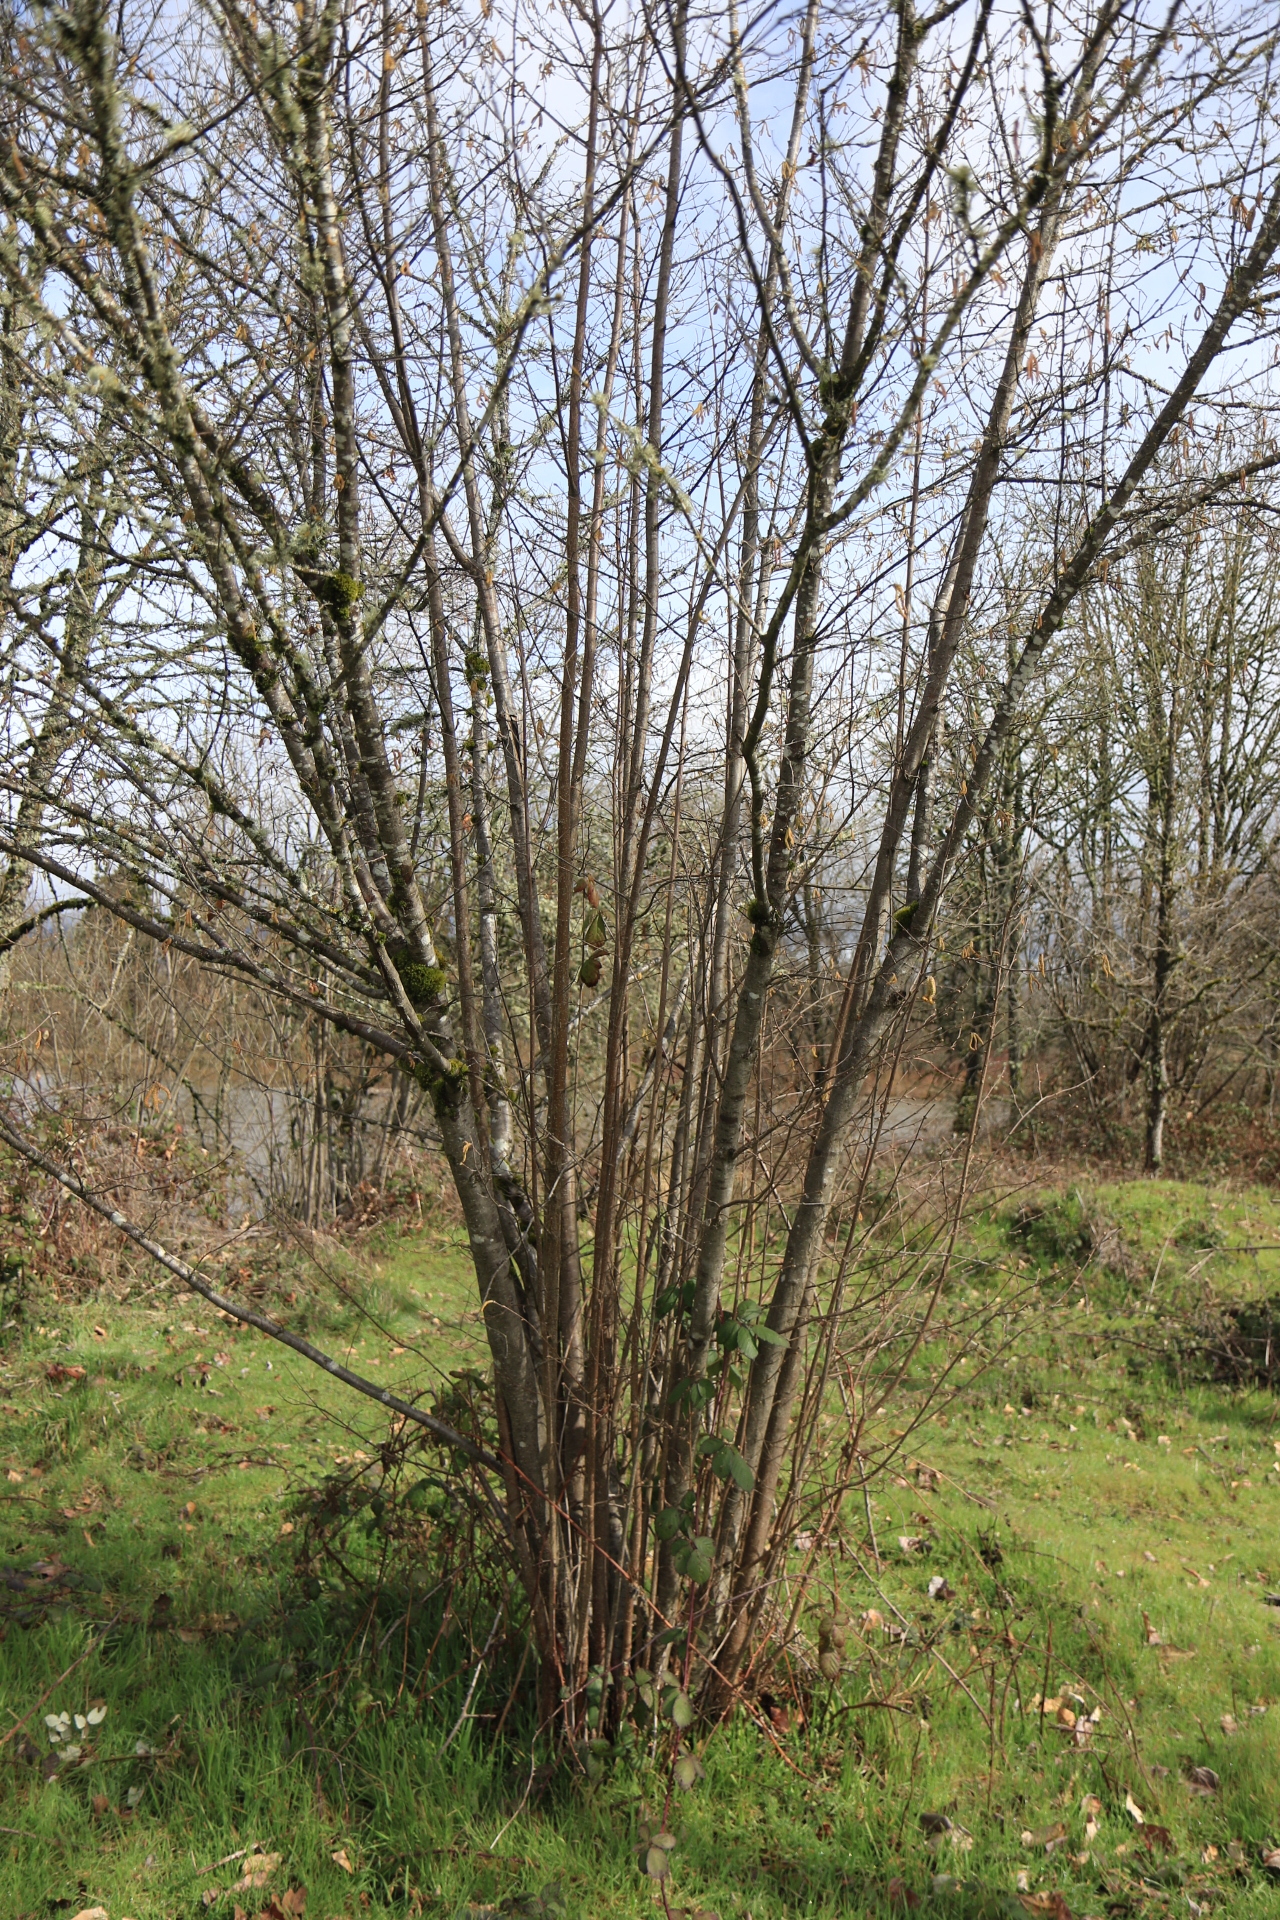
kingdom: Plantae
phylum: Tracheophyta
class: Magnoliopsida
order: Fagales
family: Betulaceae
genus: Corylus
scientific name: Corylus avellana
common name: European hazel
